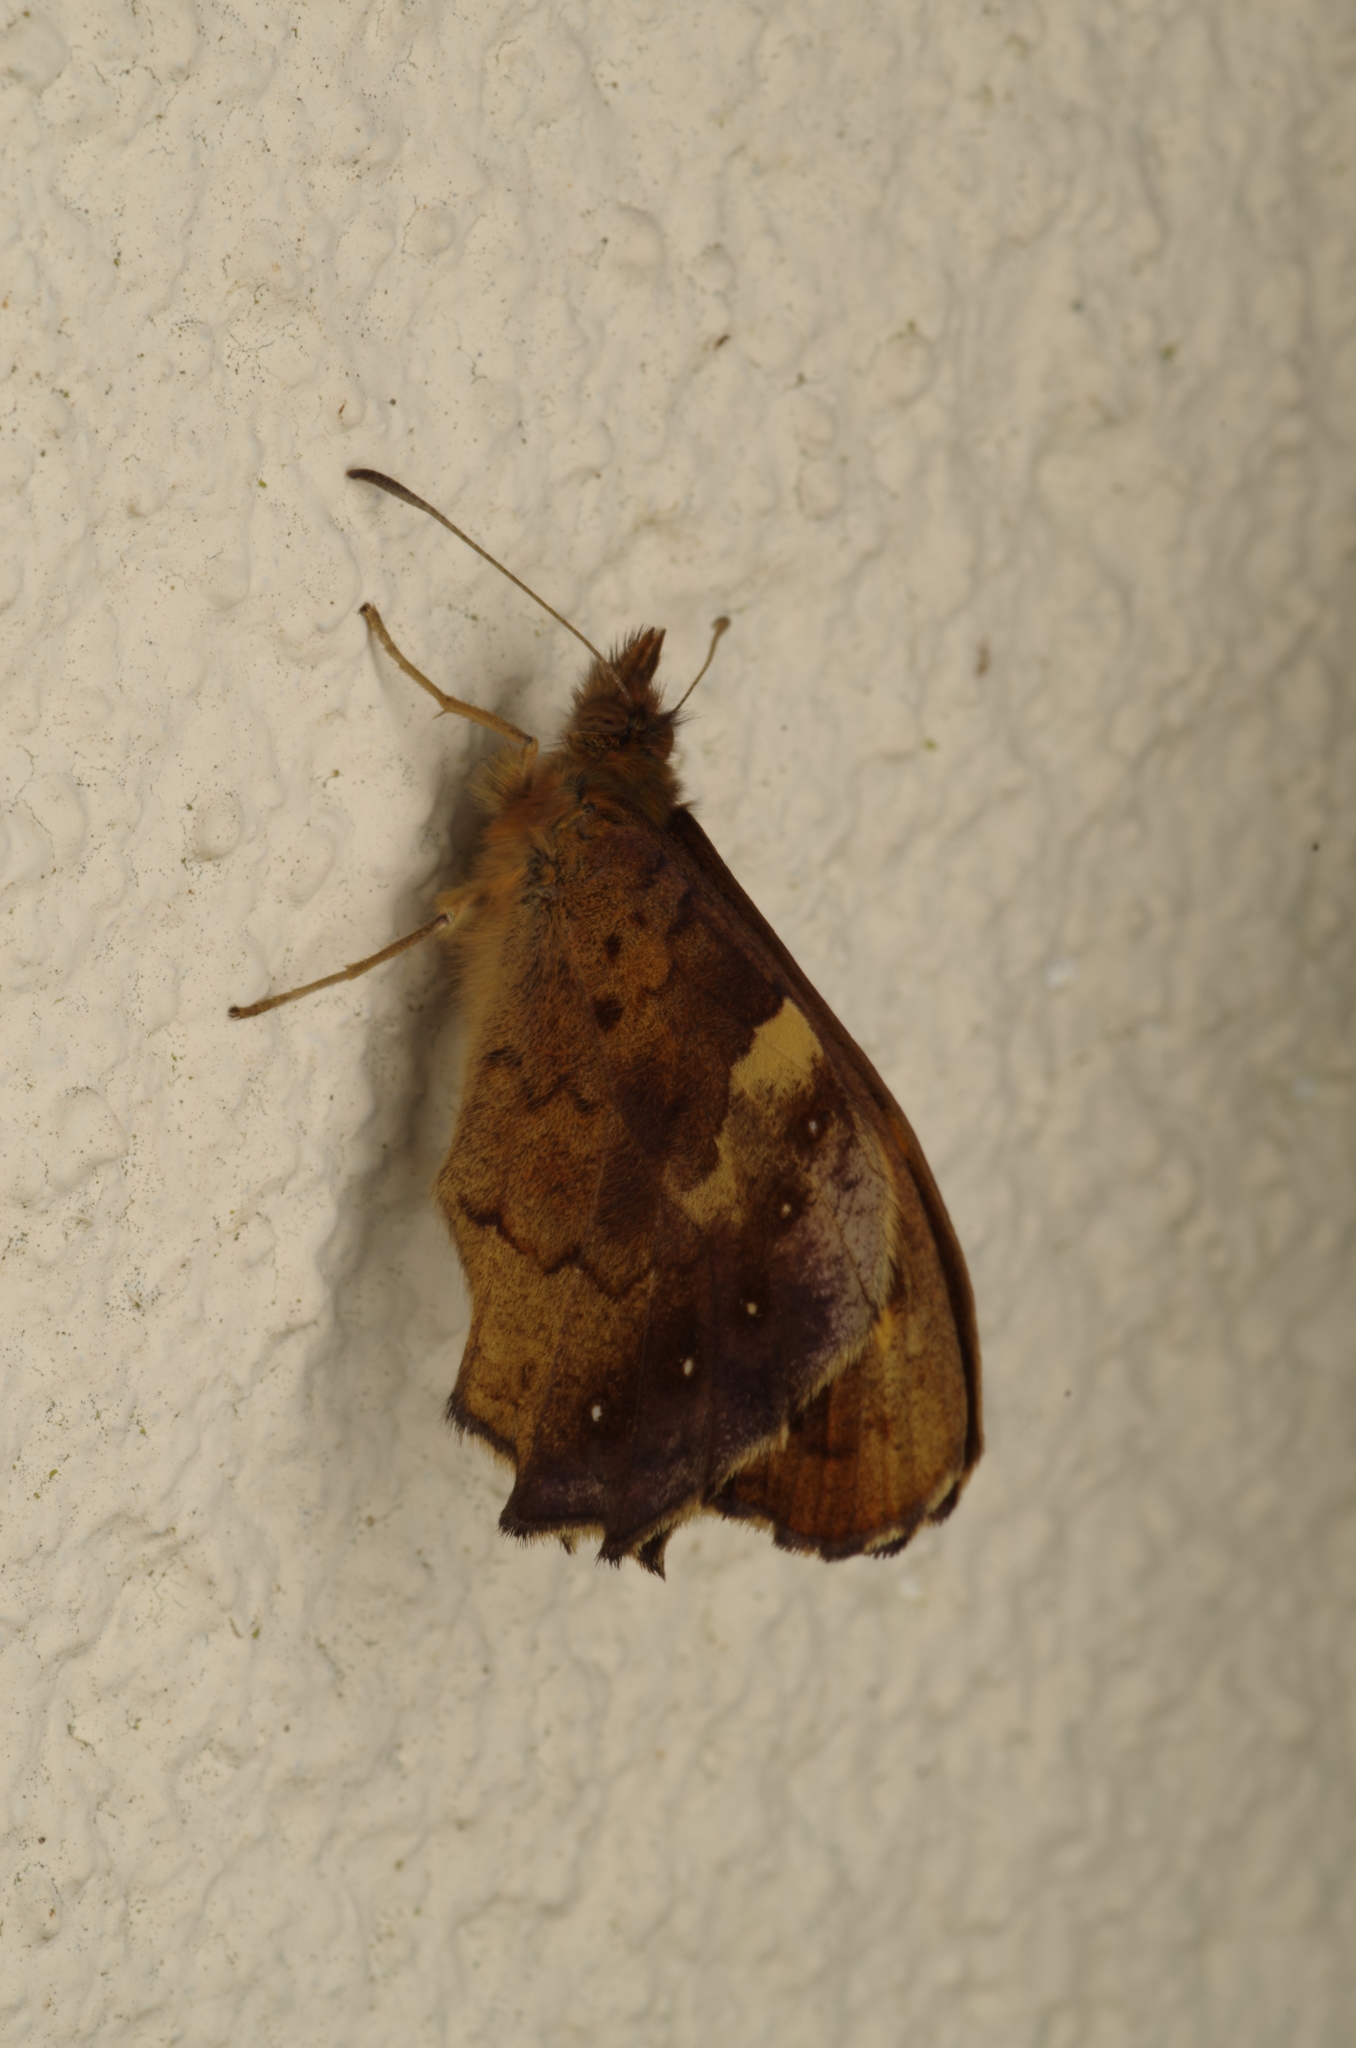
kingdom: Animalia
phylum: Arthropoda
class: Insecta
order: Lepidoptera
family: Nymphalidae
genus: Pararge
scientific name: Pararge aegeria
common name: Speckled wood
